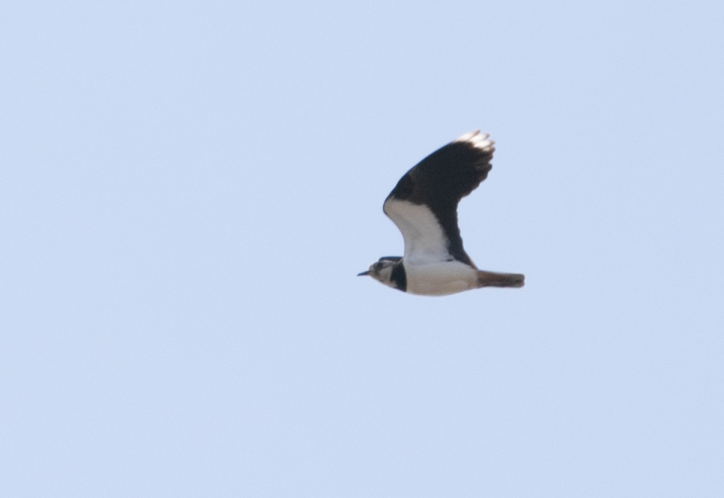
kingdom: Animalia
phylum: Chordata
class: Aves
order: Charadriiformes
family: Charadriidae
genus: Vanellus
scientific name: Vanellus vanellus
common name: Northern lapwing
